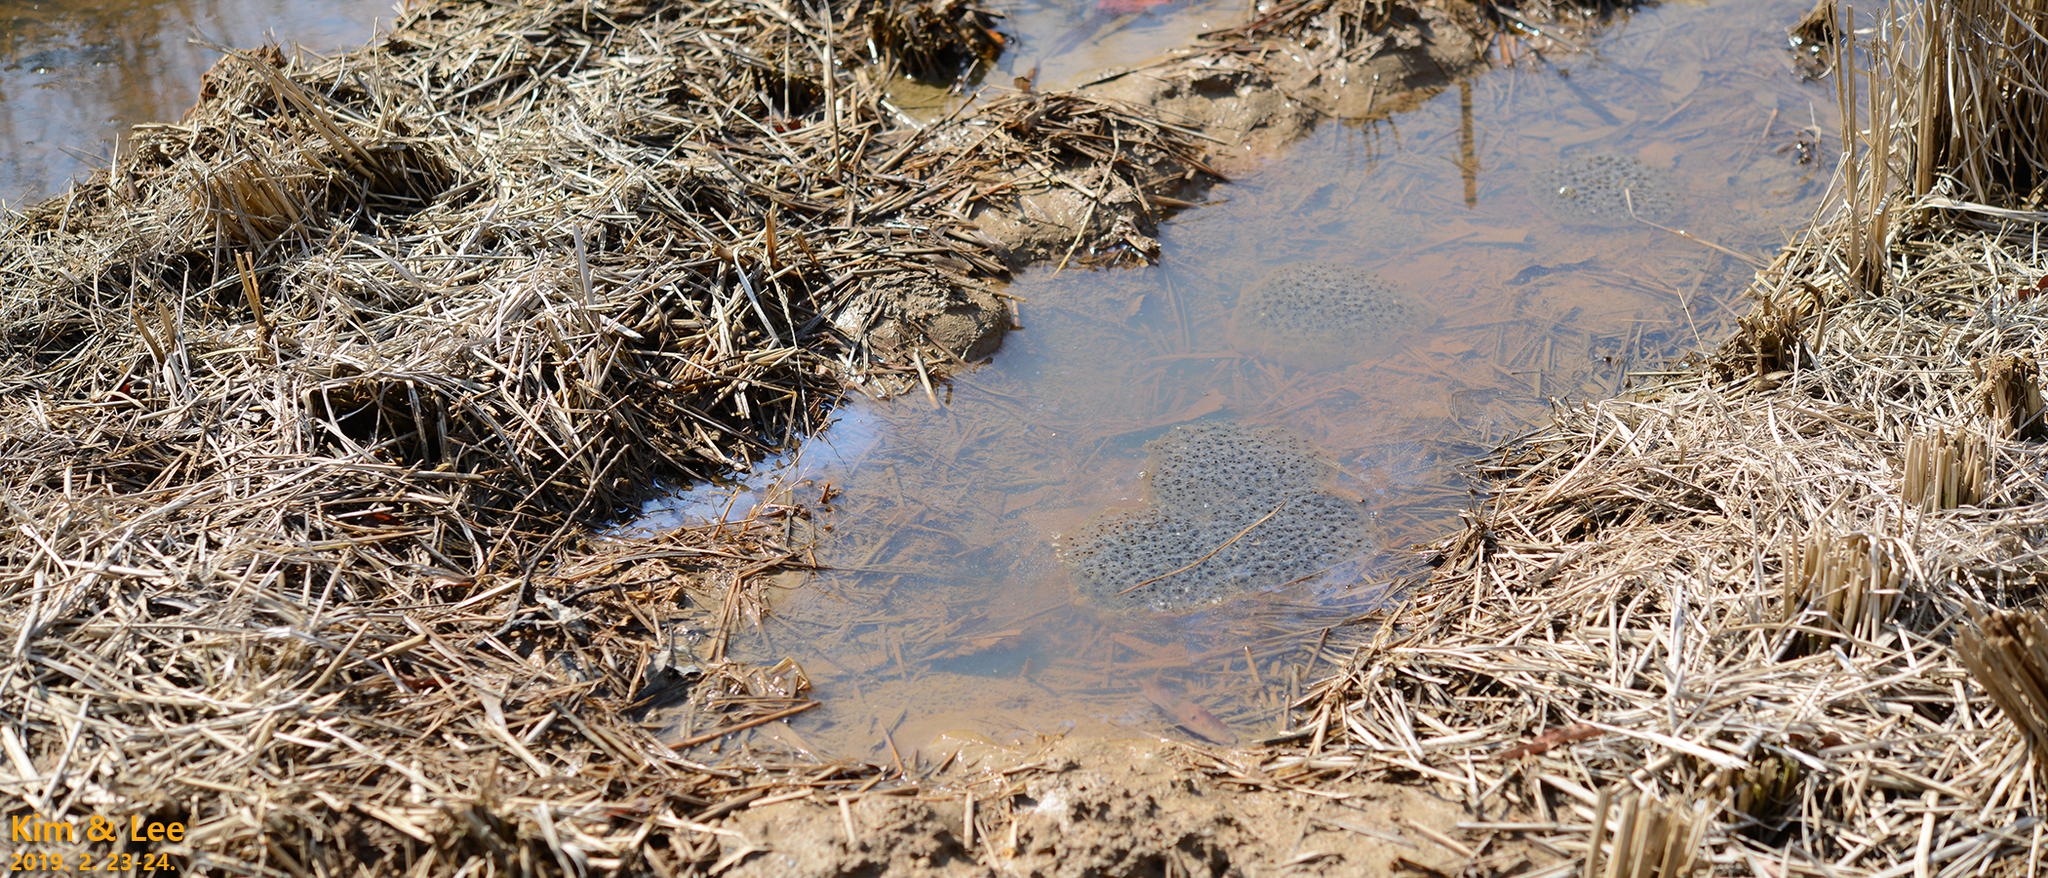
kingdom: Animalia
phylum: Chordata
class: Amphibia
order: Anura
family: Ranidae
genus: Rana
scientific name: Rana uenoi
